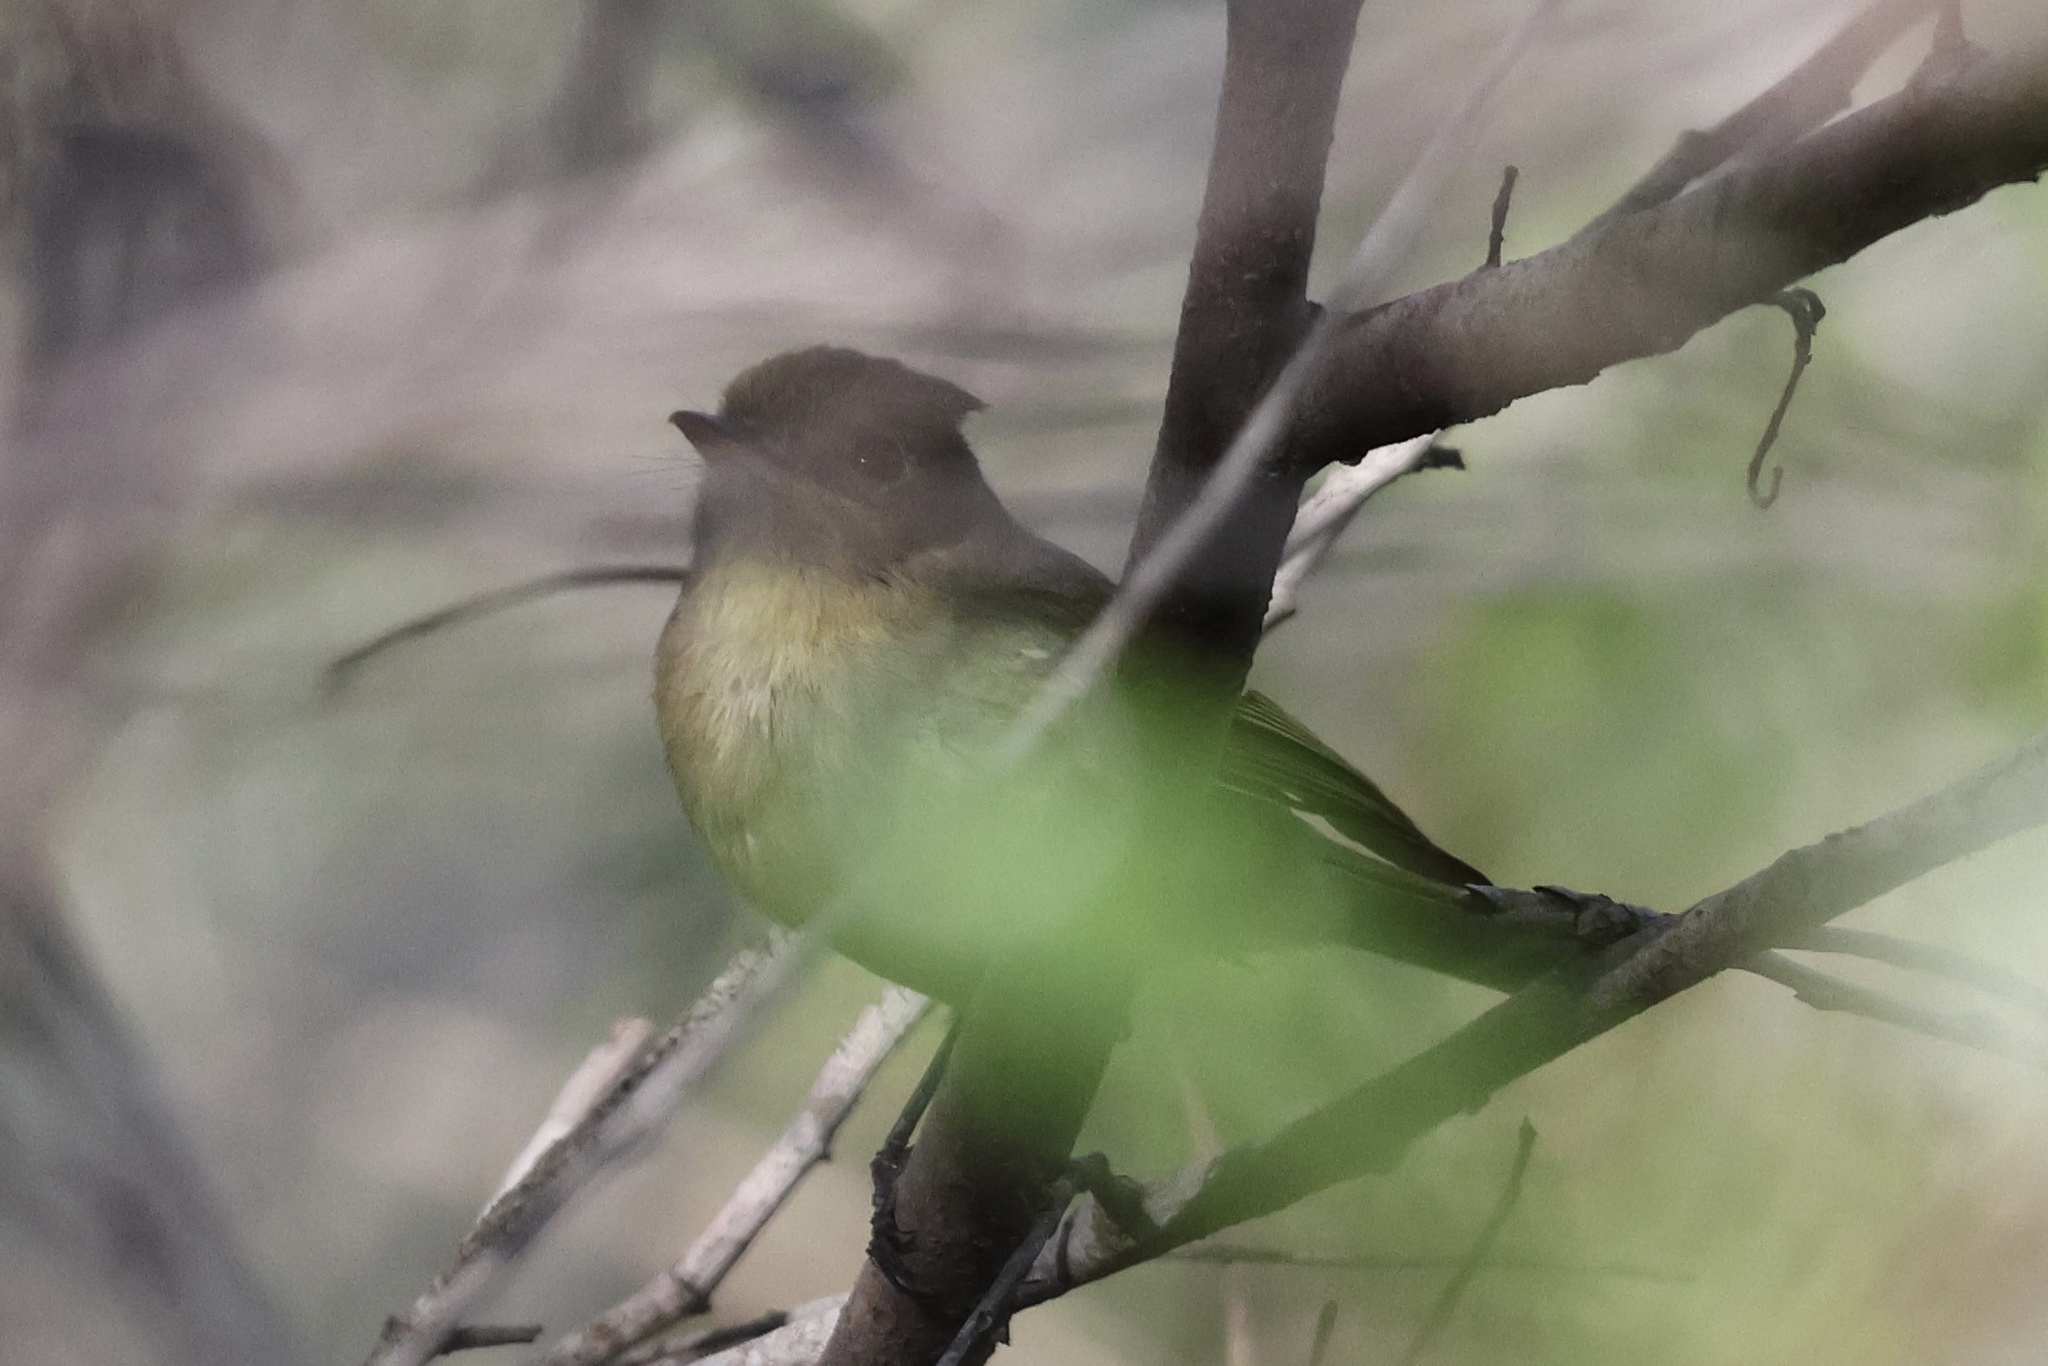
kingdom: Animalia
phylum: Chordata
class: Aves
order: Passeriformes
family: Tyrannidae
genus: Empidonax
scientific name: Empidonax difficilis
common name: Pacific-slope flycatcher
